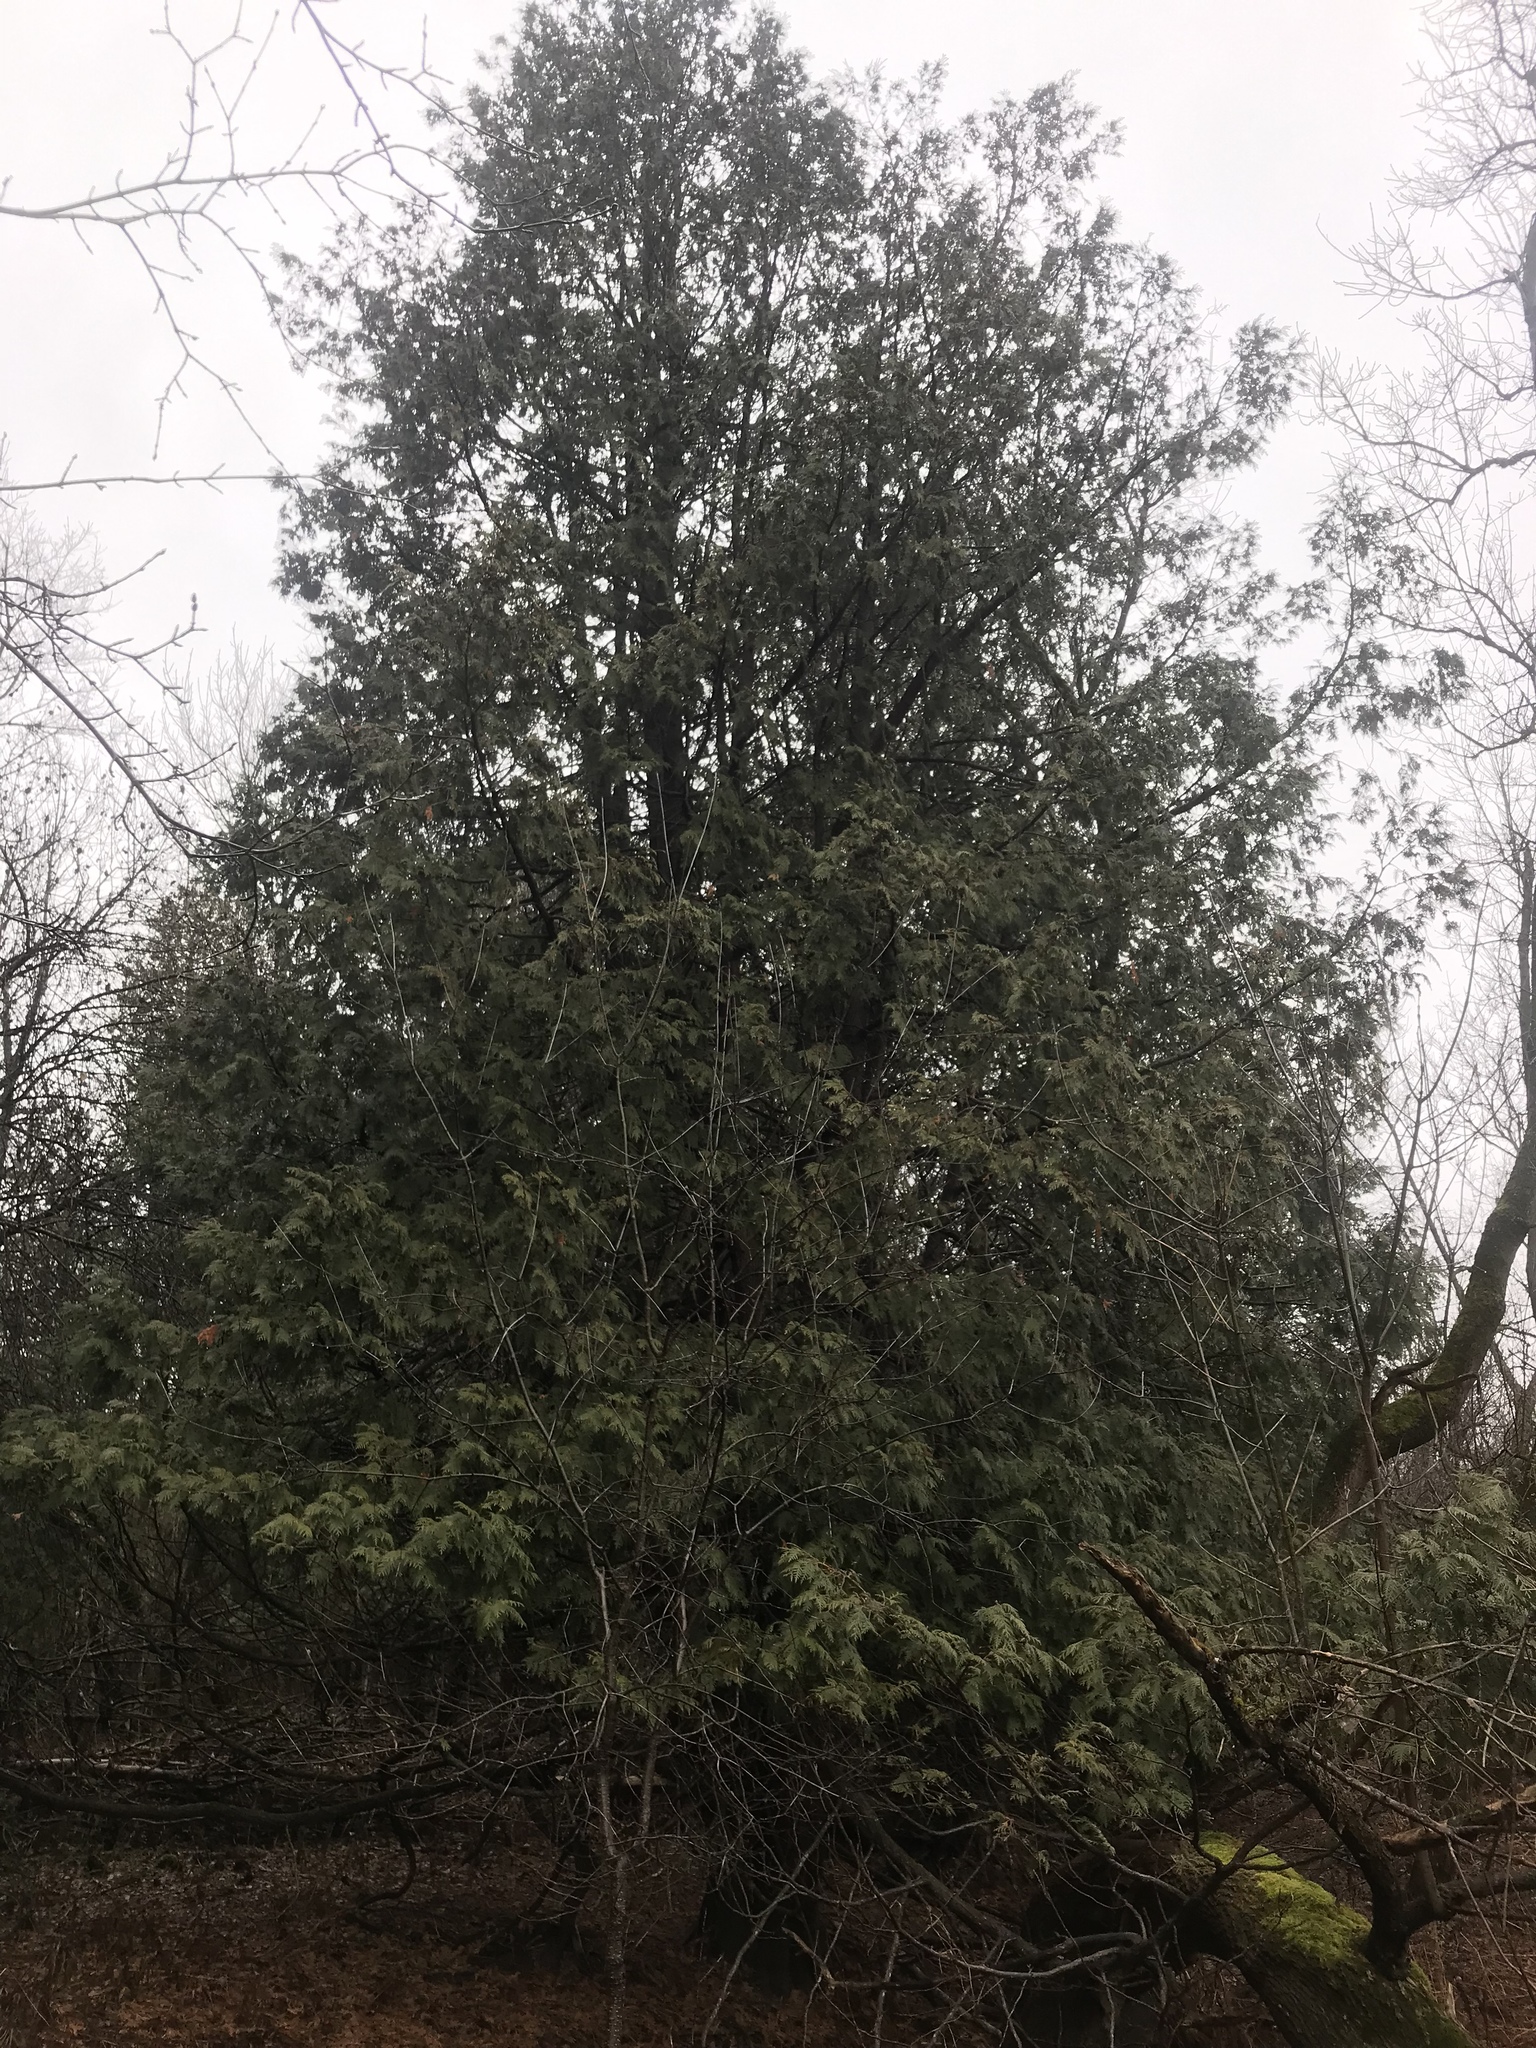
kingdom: Plantae
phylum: Tracheophyta
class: Pinopsida
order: Pinales
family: Cupressaceae
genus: Thuja
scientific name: Thuja occidentalis
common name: Northern white-cedar
